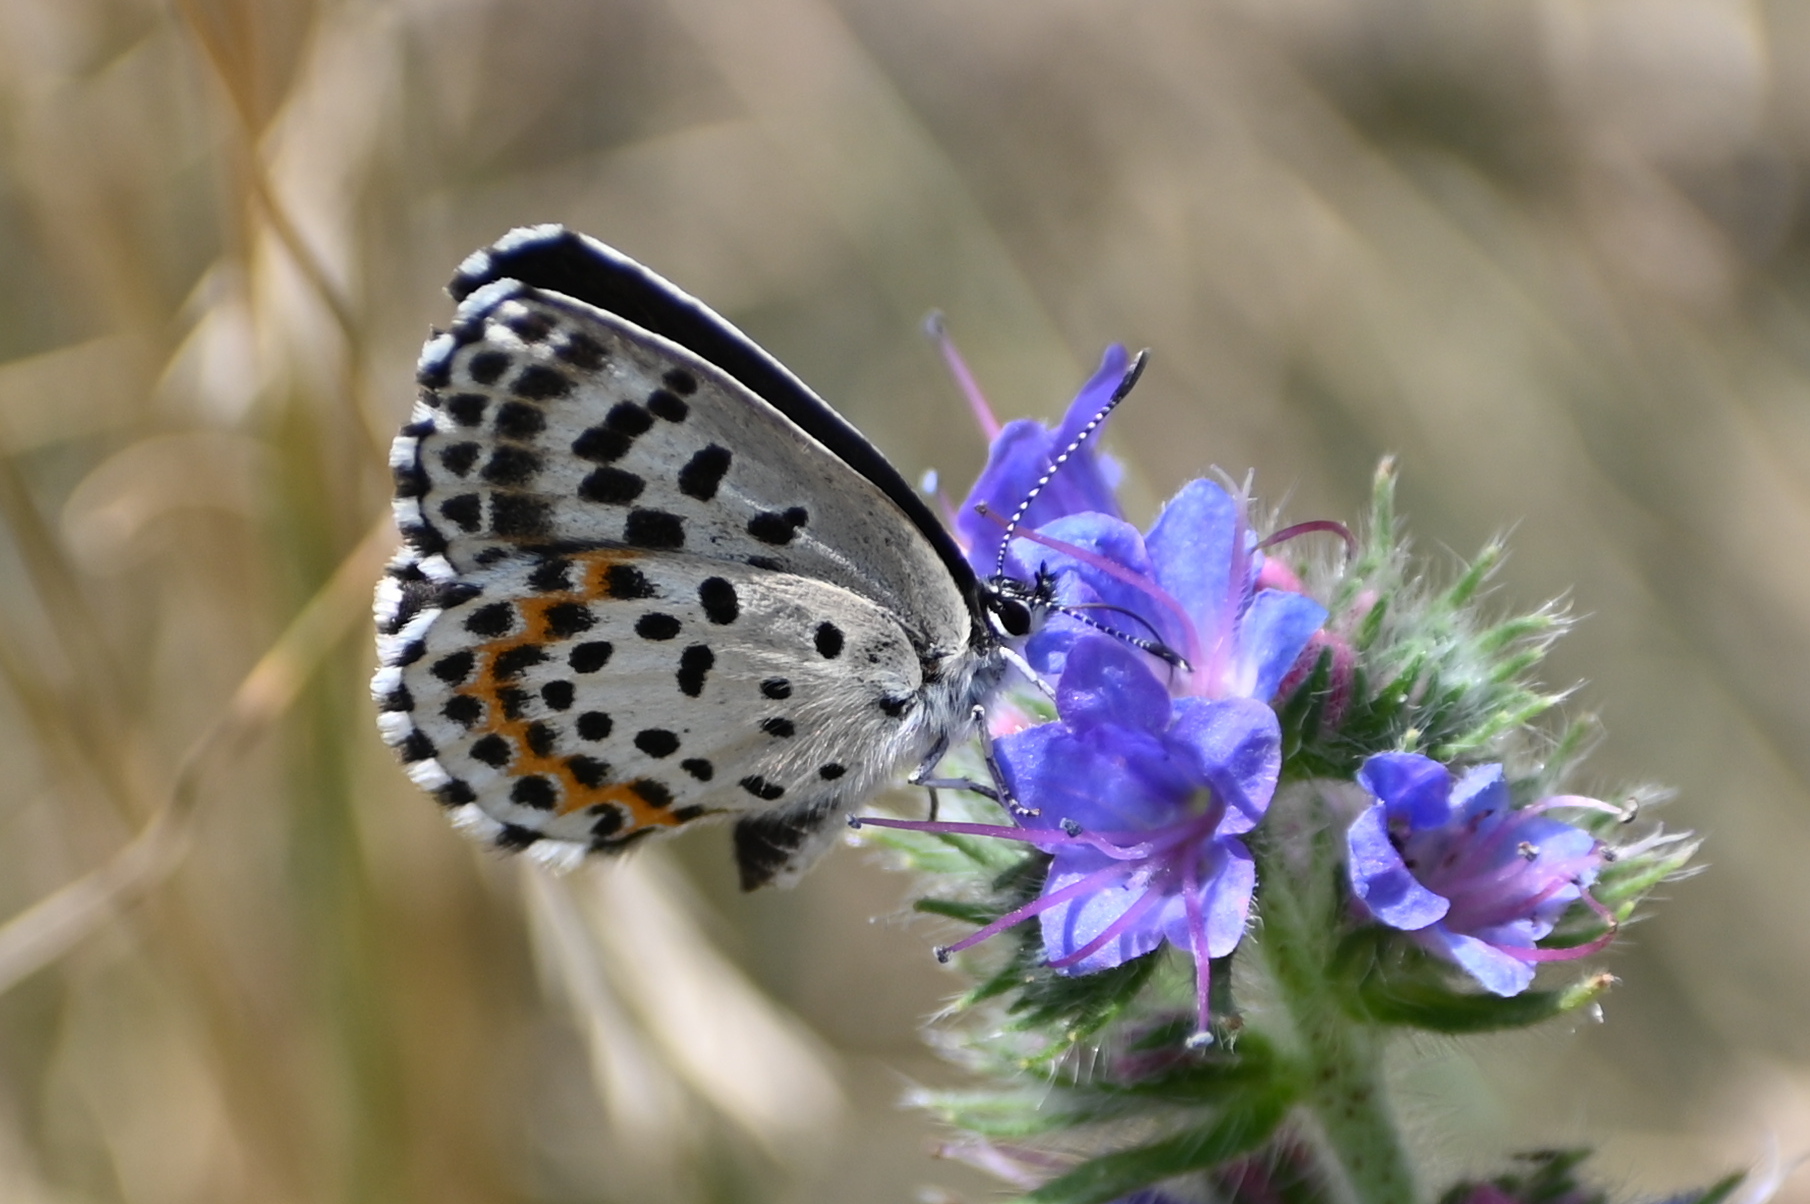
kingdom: Animalia
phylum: Arthropoda
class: Insecta
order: Lepidoptera
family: Lycaenidae
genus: Scolitantides
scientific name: Scolitantides orion
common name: Chequered blue
